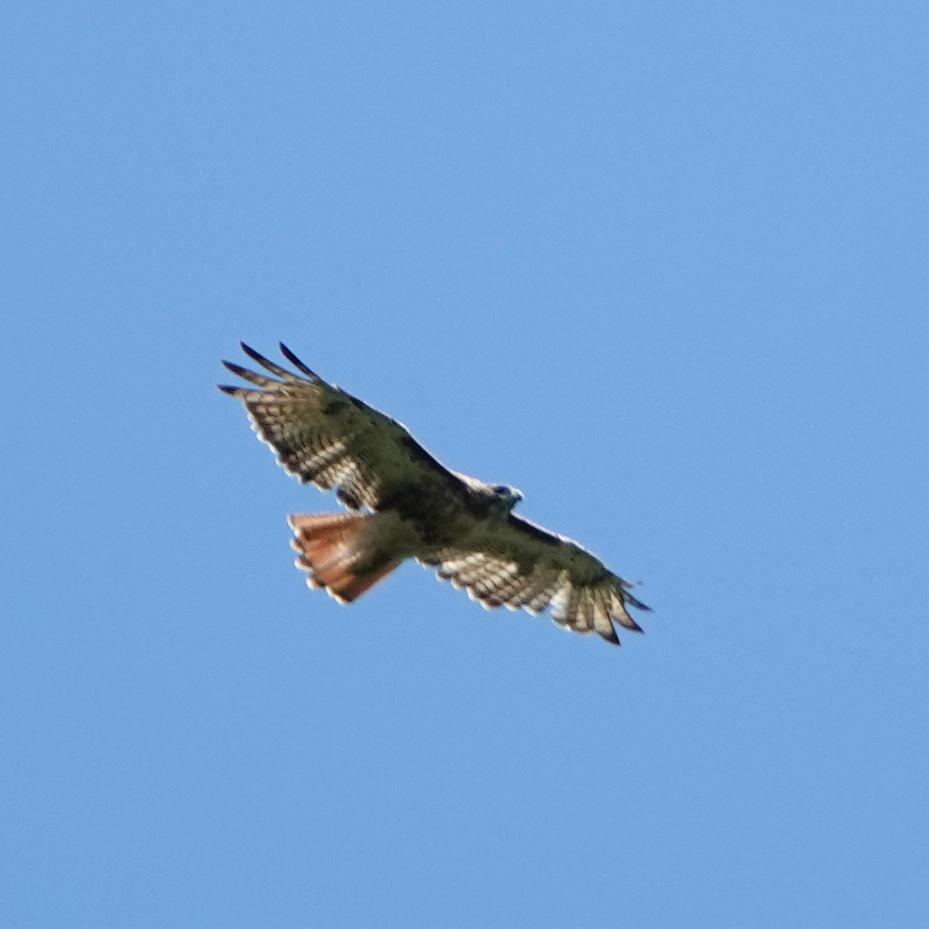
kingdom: Animalia
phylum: Chordata
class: Aves
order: Accipitriformes
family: Accipitridae
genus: Buteo
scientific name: Buteo jamaicensis
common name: Red-tailed hawk
